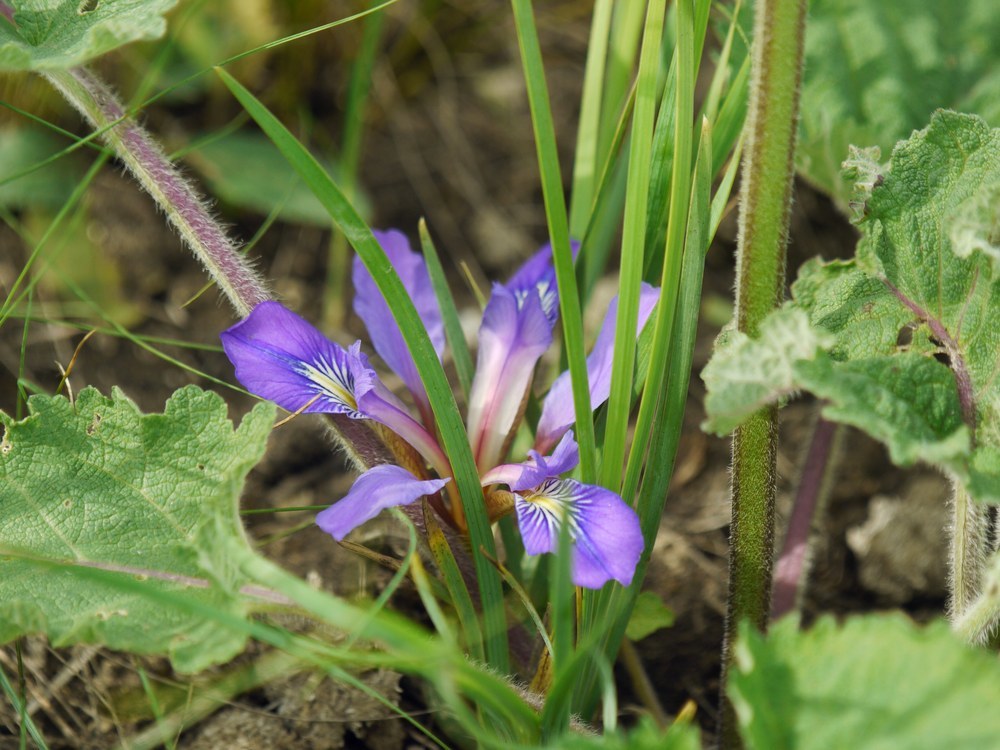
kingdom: Plantae
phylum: Tracheophyta
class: Liliopsida
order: Asparagales
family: Iridaceae
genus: Iris
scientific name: Iris pontica
